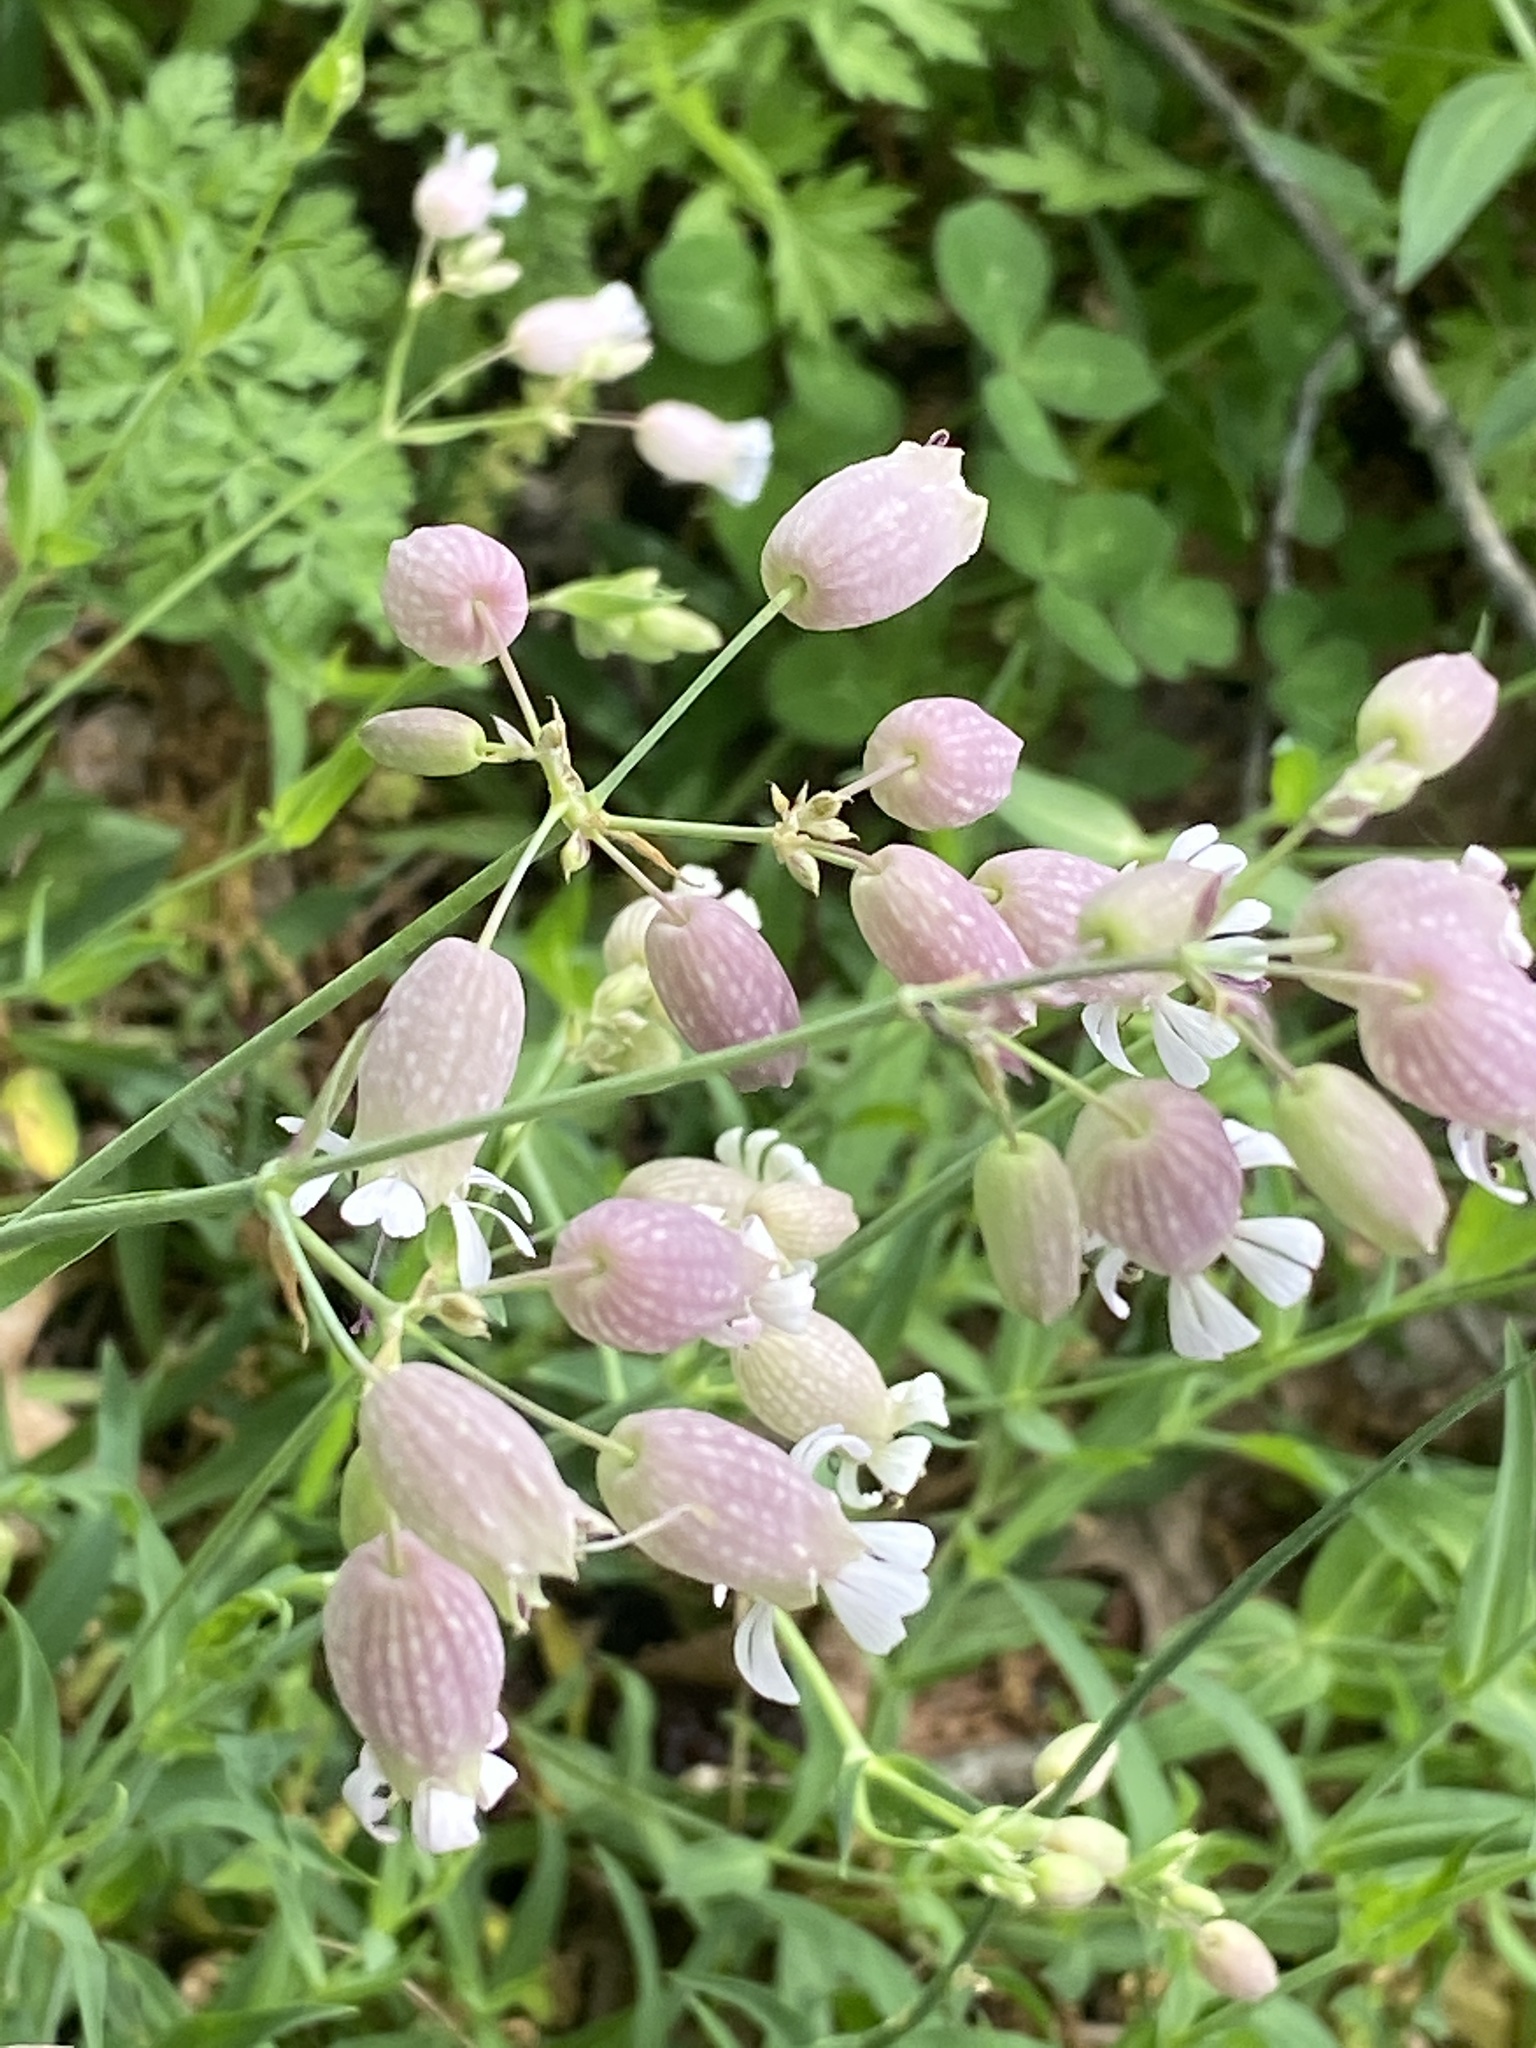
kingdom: Plantae
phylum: Tracheophyta
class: Magnoliopsida
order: Caryophyllales
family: Caryophyllaceae
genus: Silene
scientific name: Silene vulgaris
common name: Bladder campion
